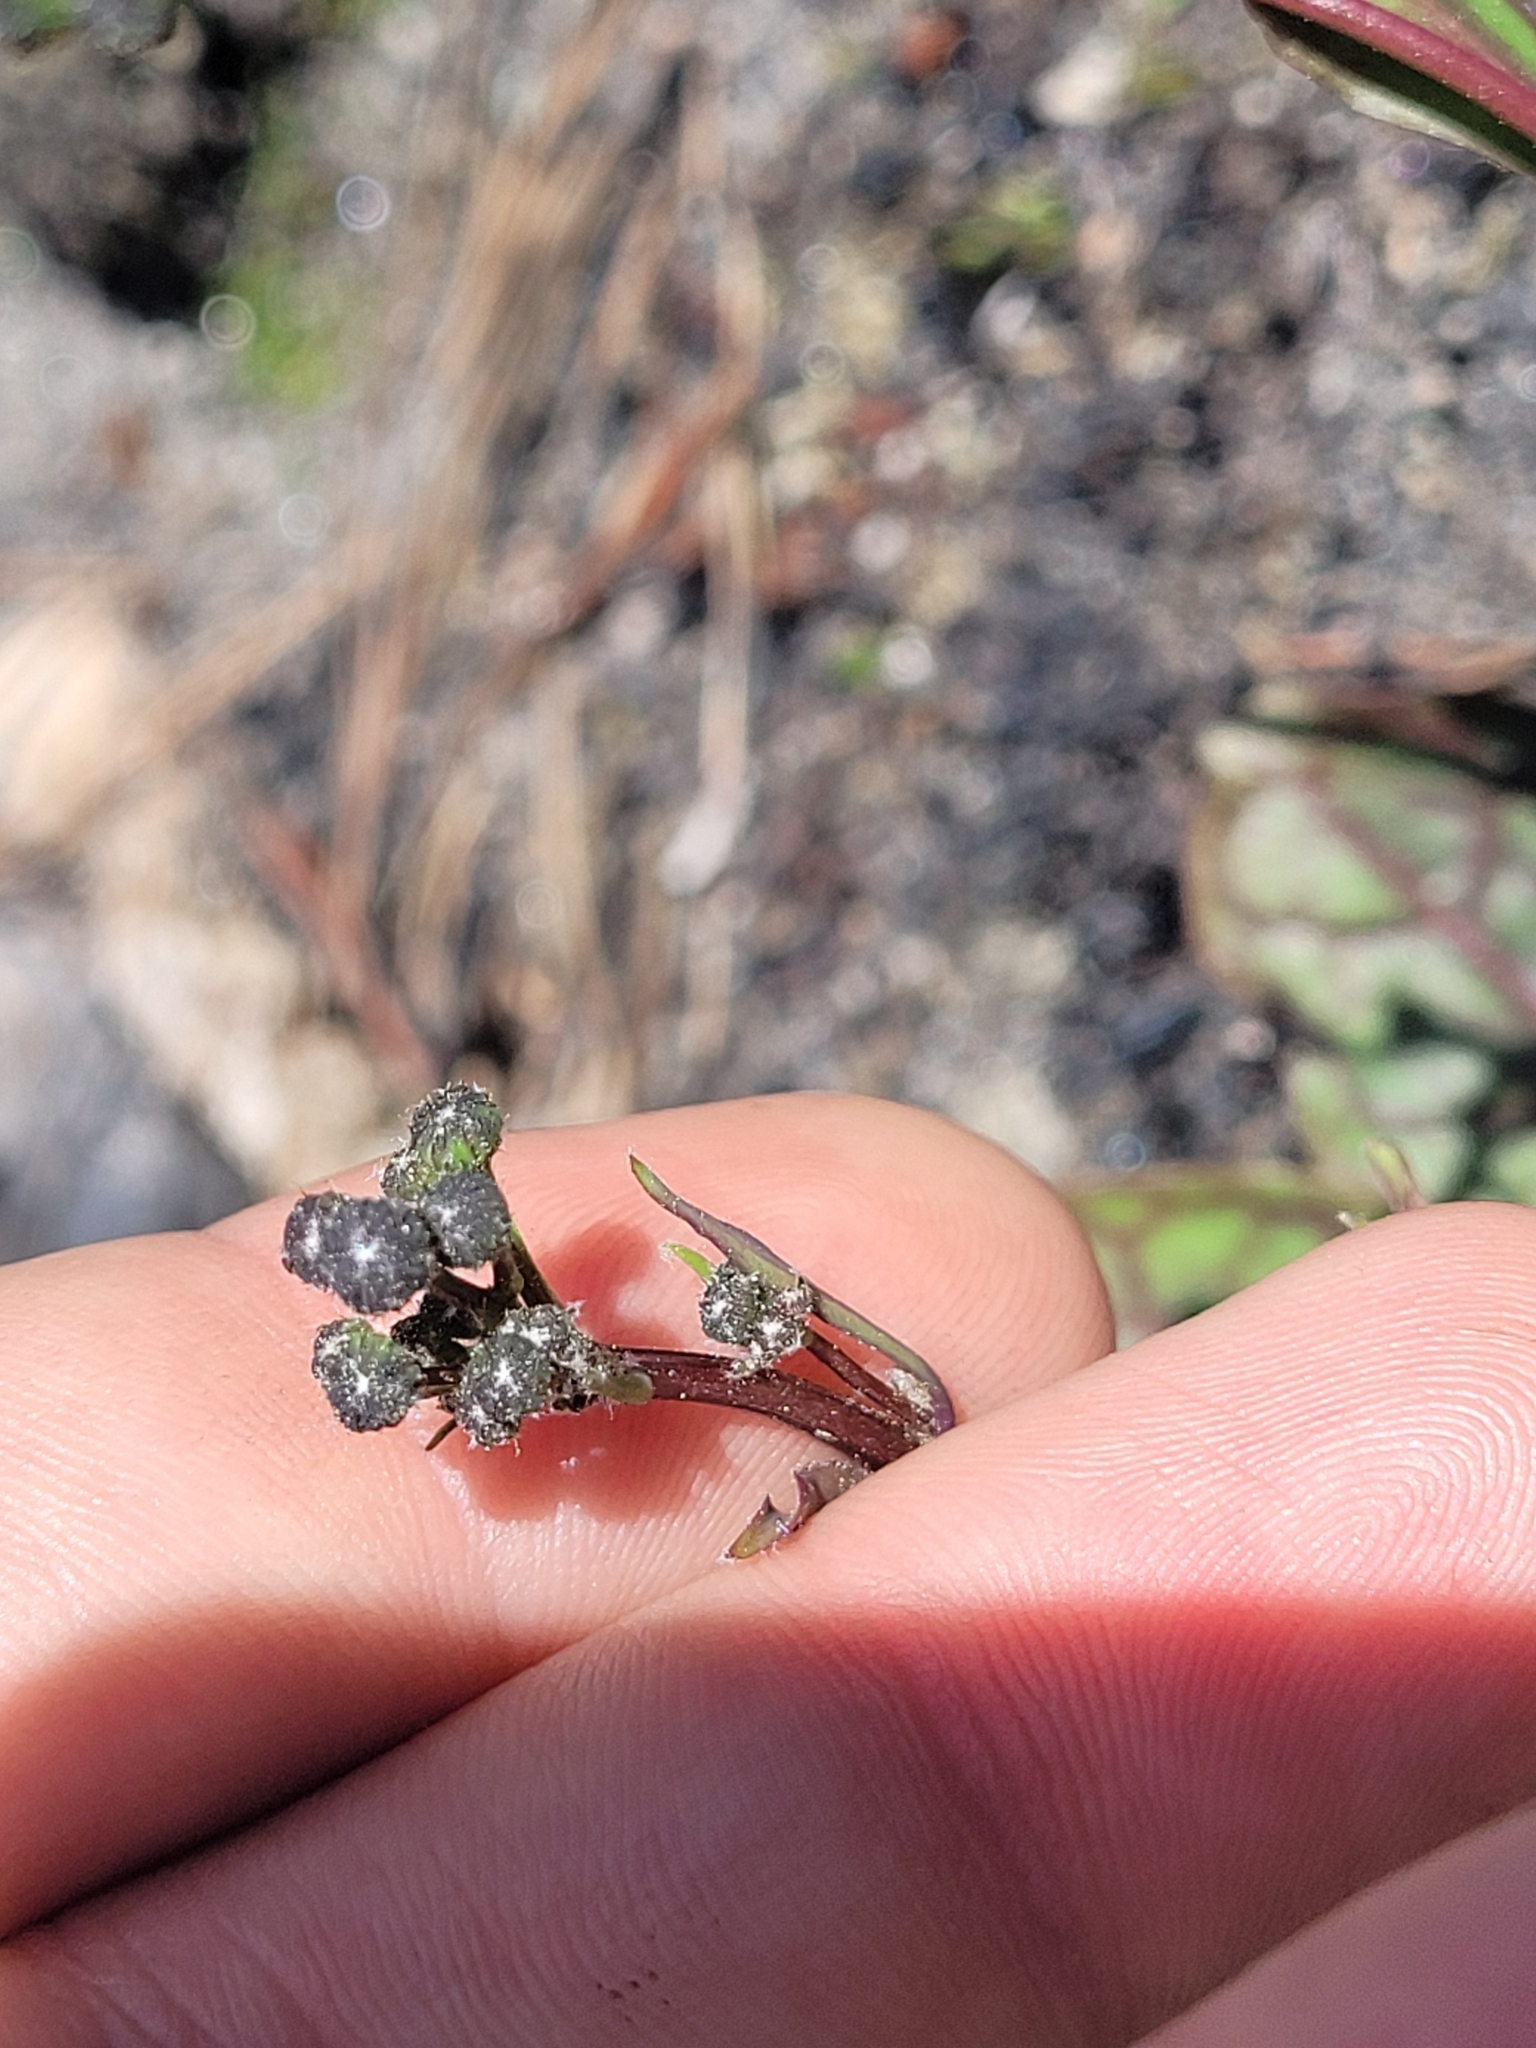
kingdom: Plantae
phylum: Tracheophyta
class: Magnoliopsida
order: Asterales
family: Asteraceae
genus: Hieracium
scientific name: Hieracium venosum
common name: Rattlesnake hawkweed
